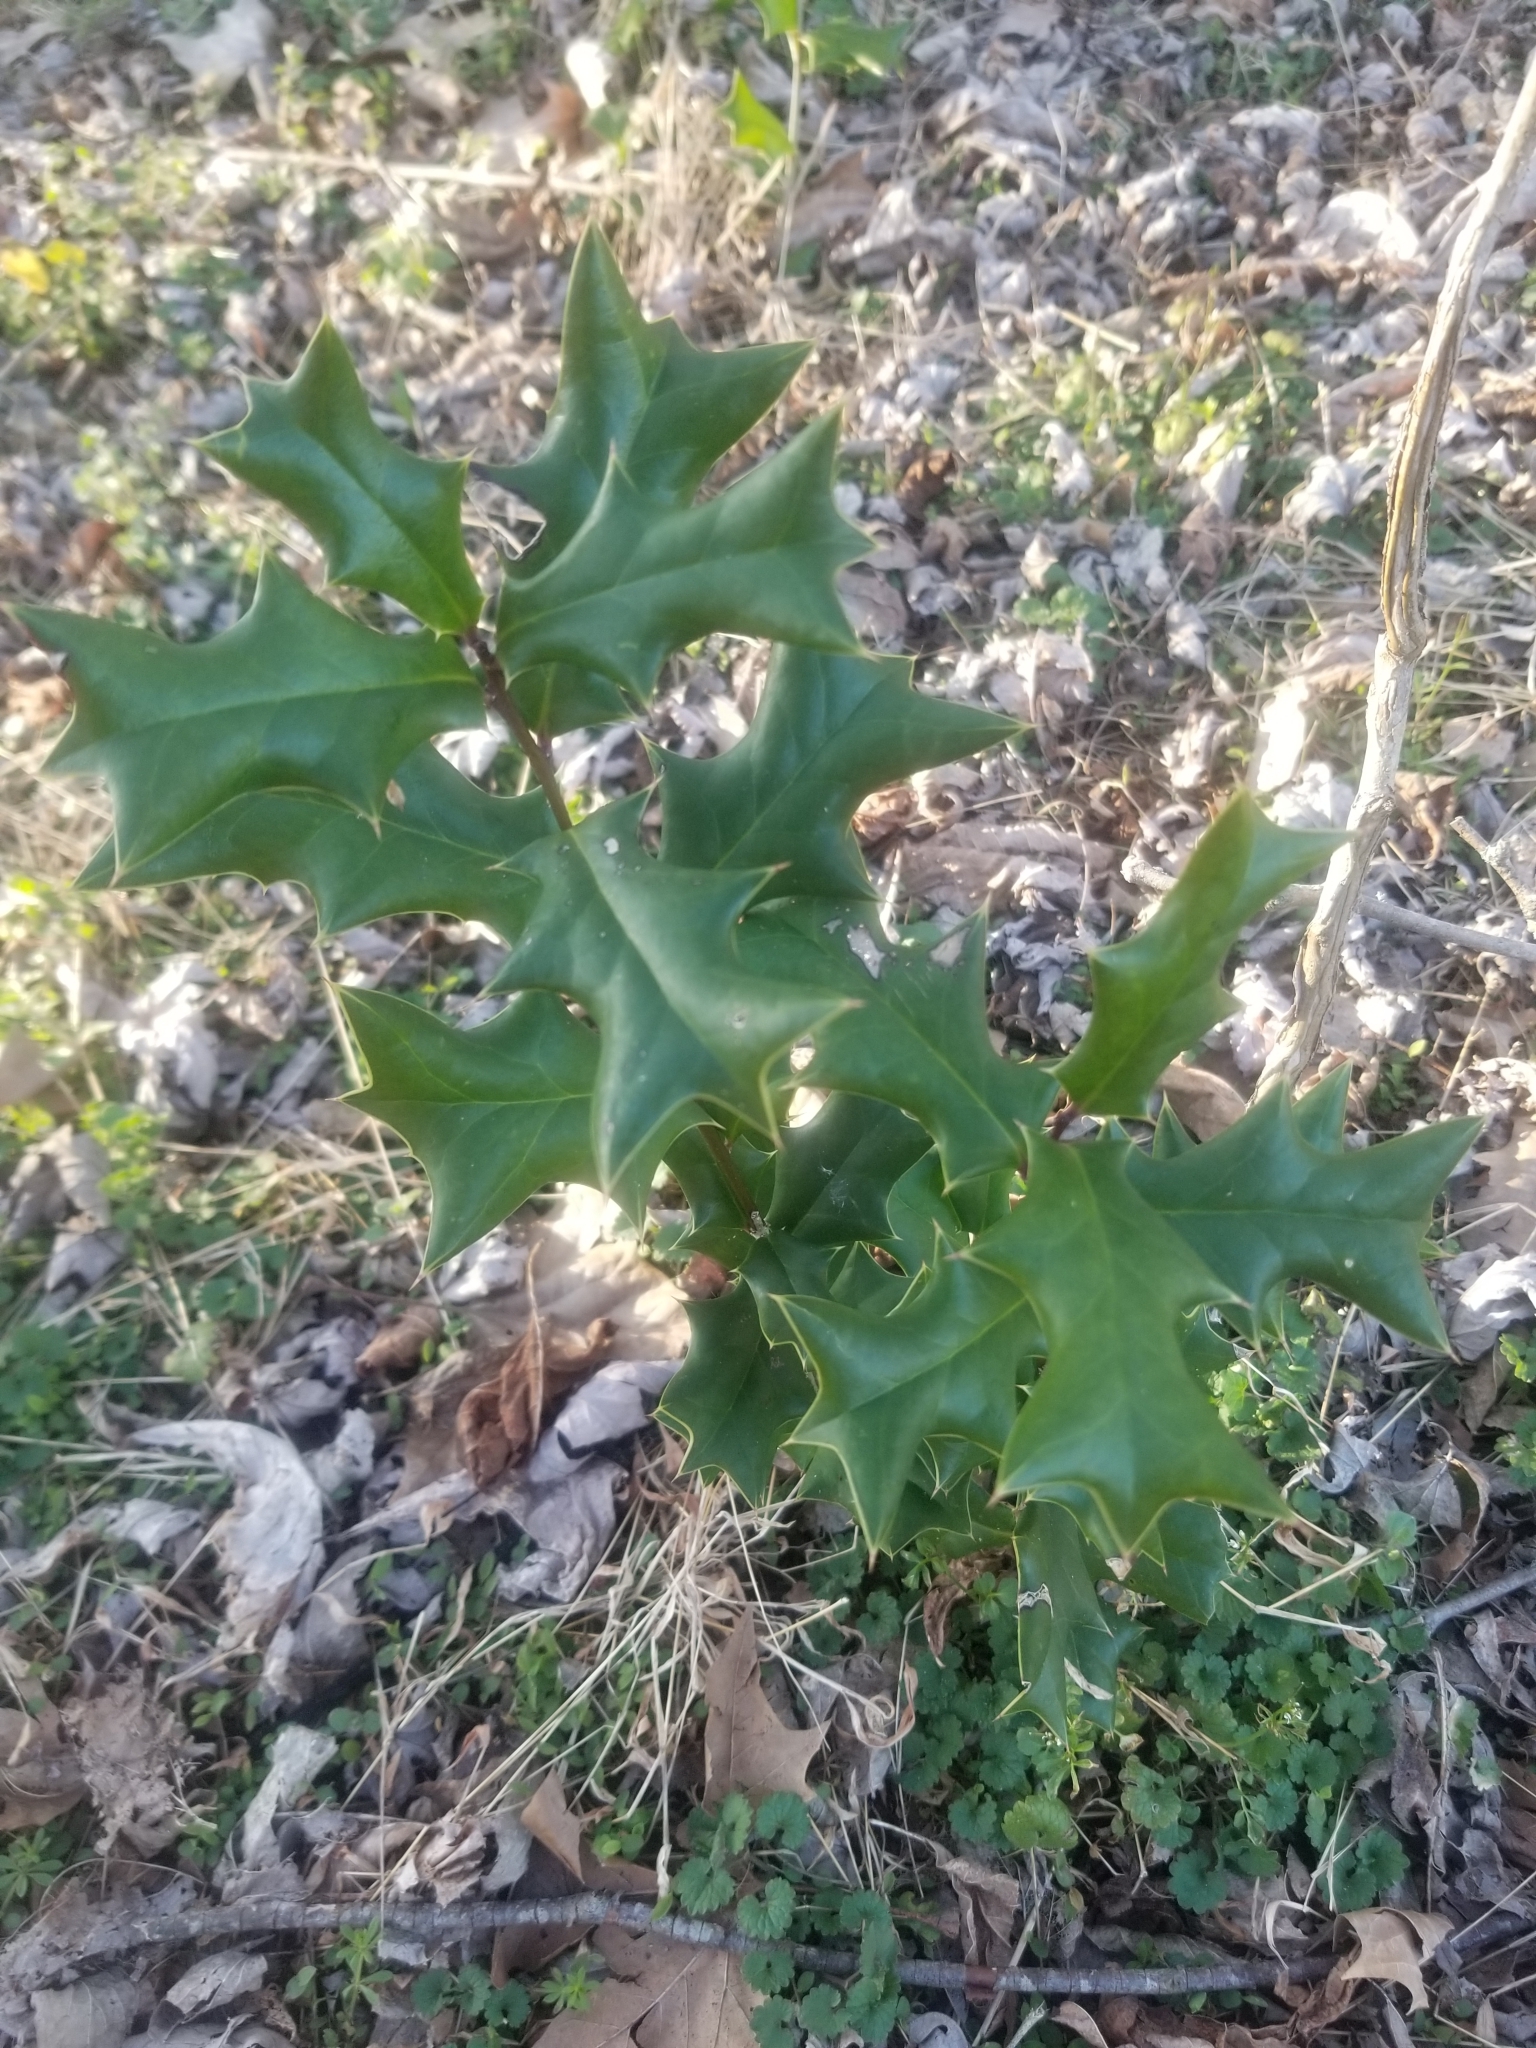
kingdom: Plantae
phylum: Tracheophyta
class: Magnoliopsida
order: Aquifoliales
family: Aquifoliaceae
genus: Ilex
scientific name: Ilex cornuta
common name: Chinese holly
